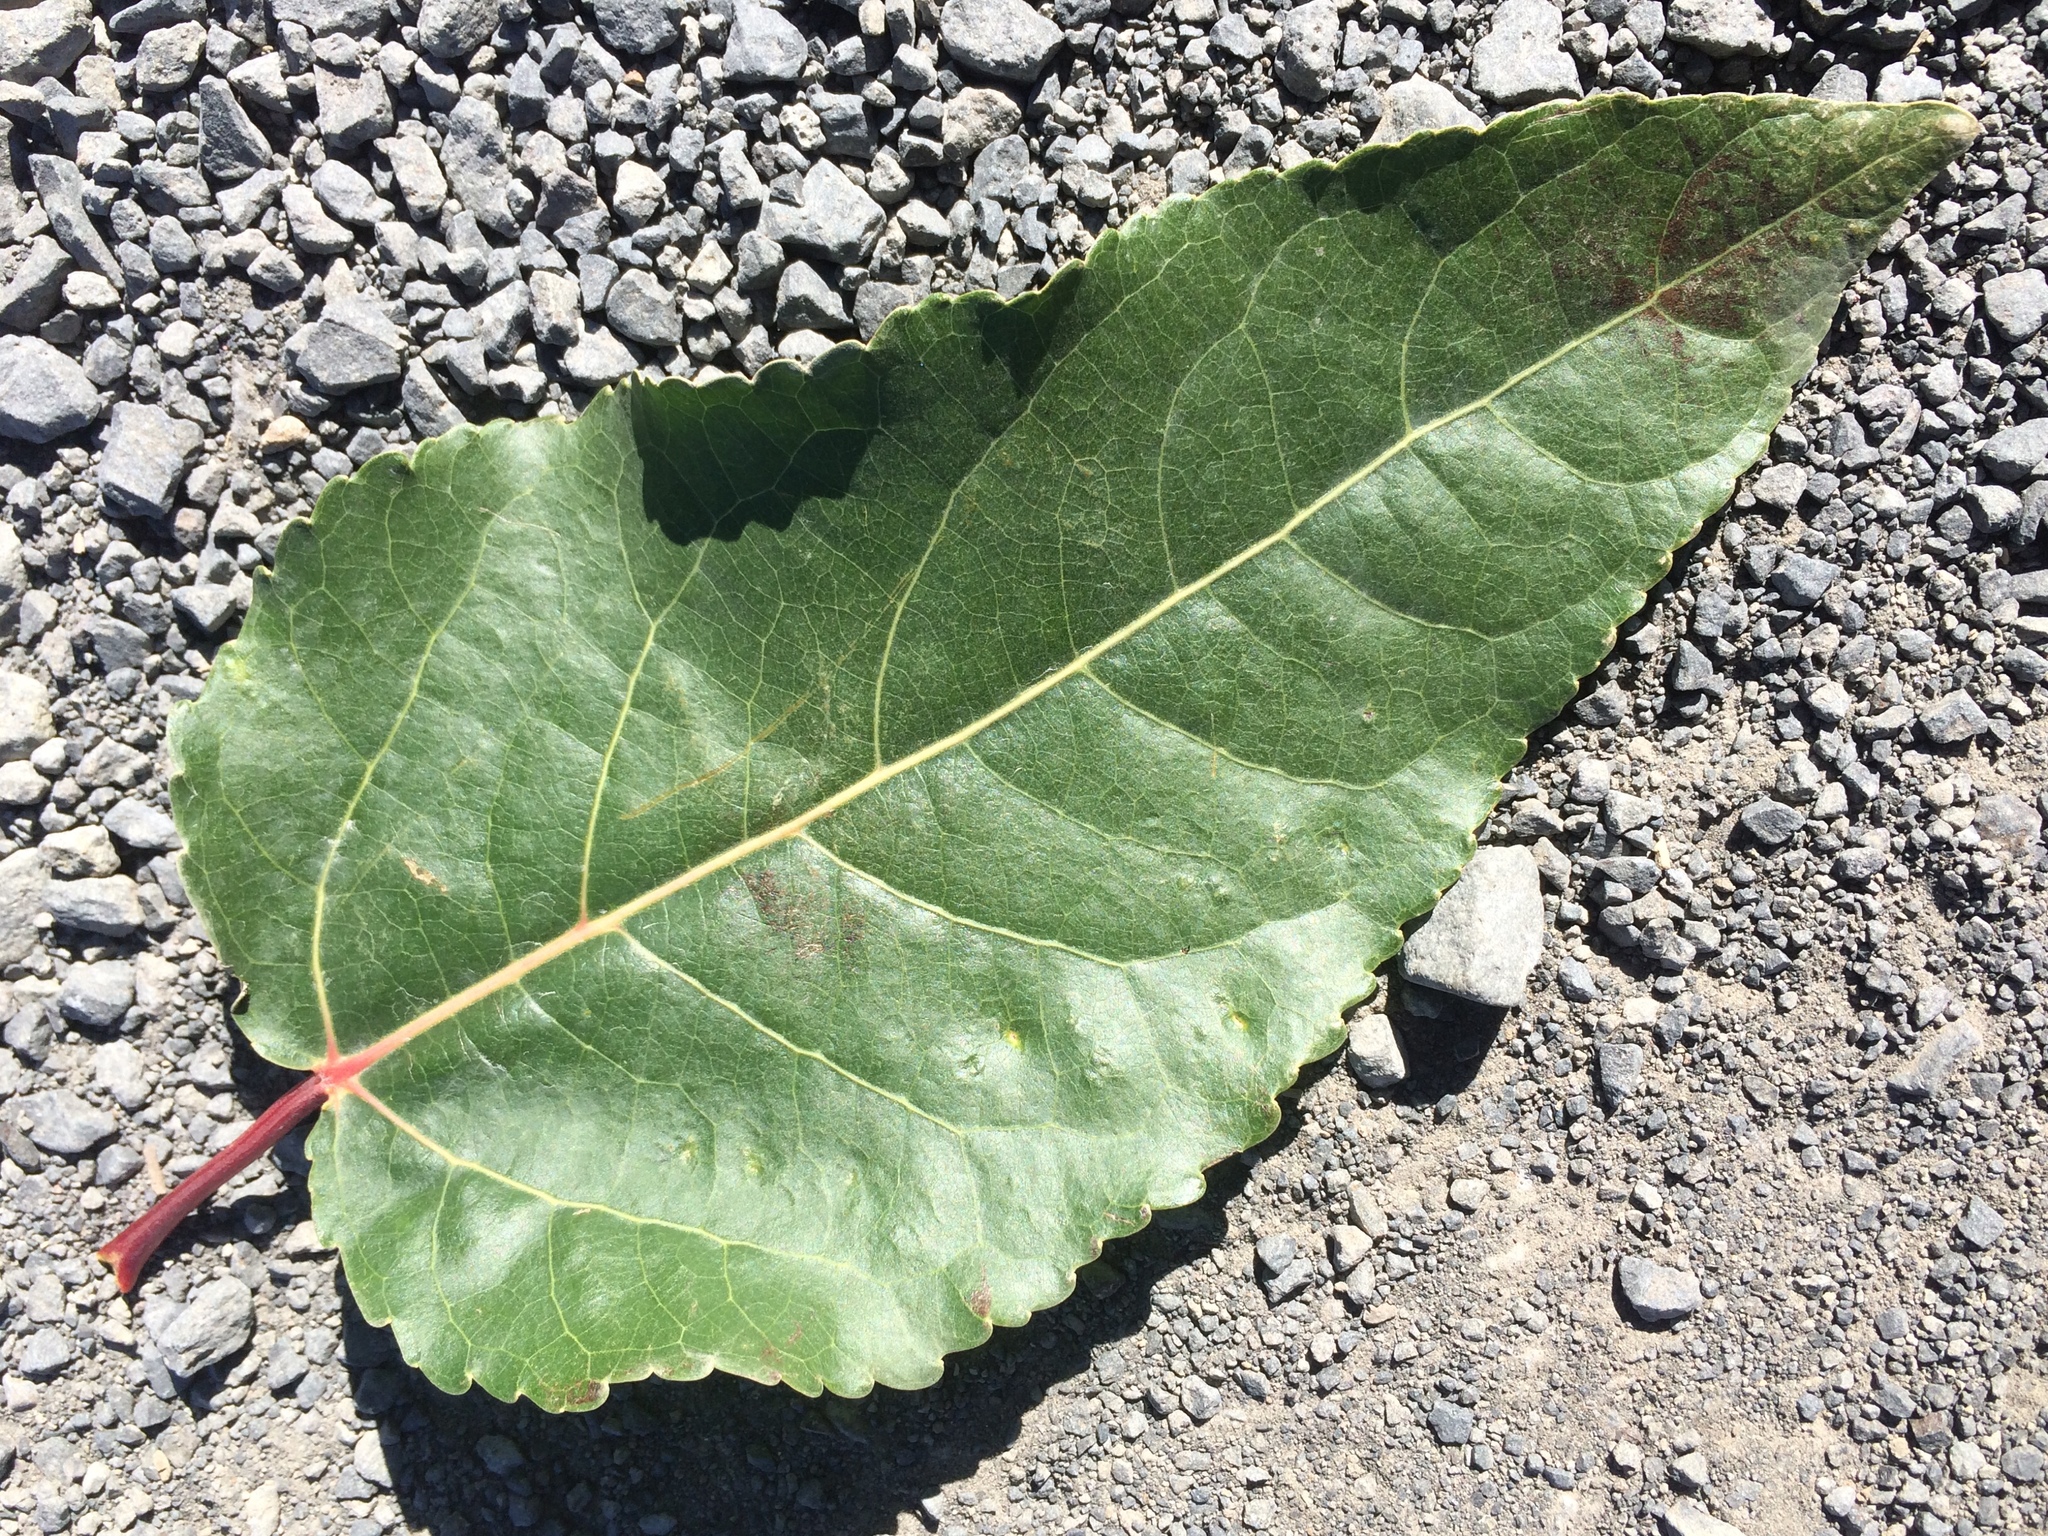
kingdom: Plantae
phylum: Tracheophyta
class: Magnoliopsida
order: Malpighiales
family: Salicaceae
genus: Populus
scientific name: Populus trichocarpa
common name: Black cottonwood
